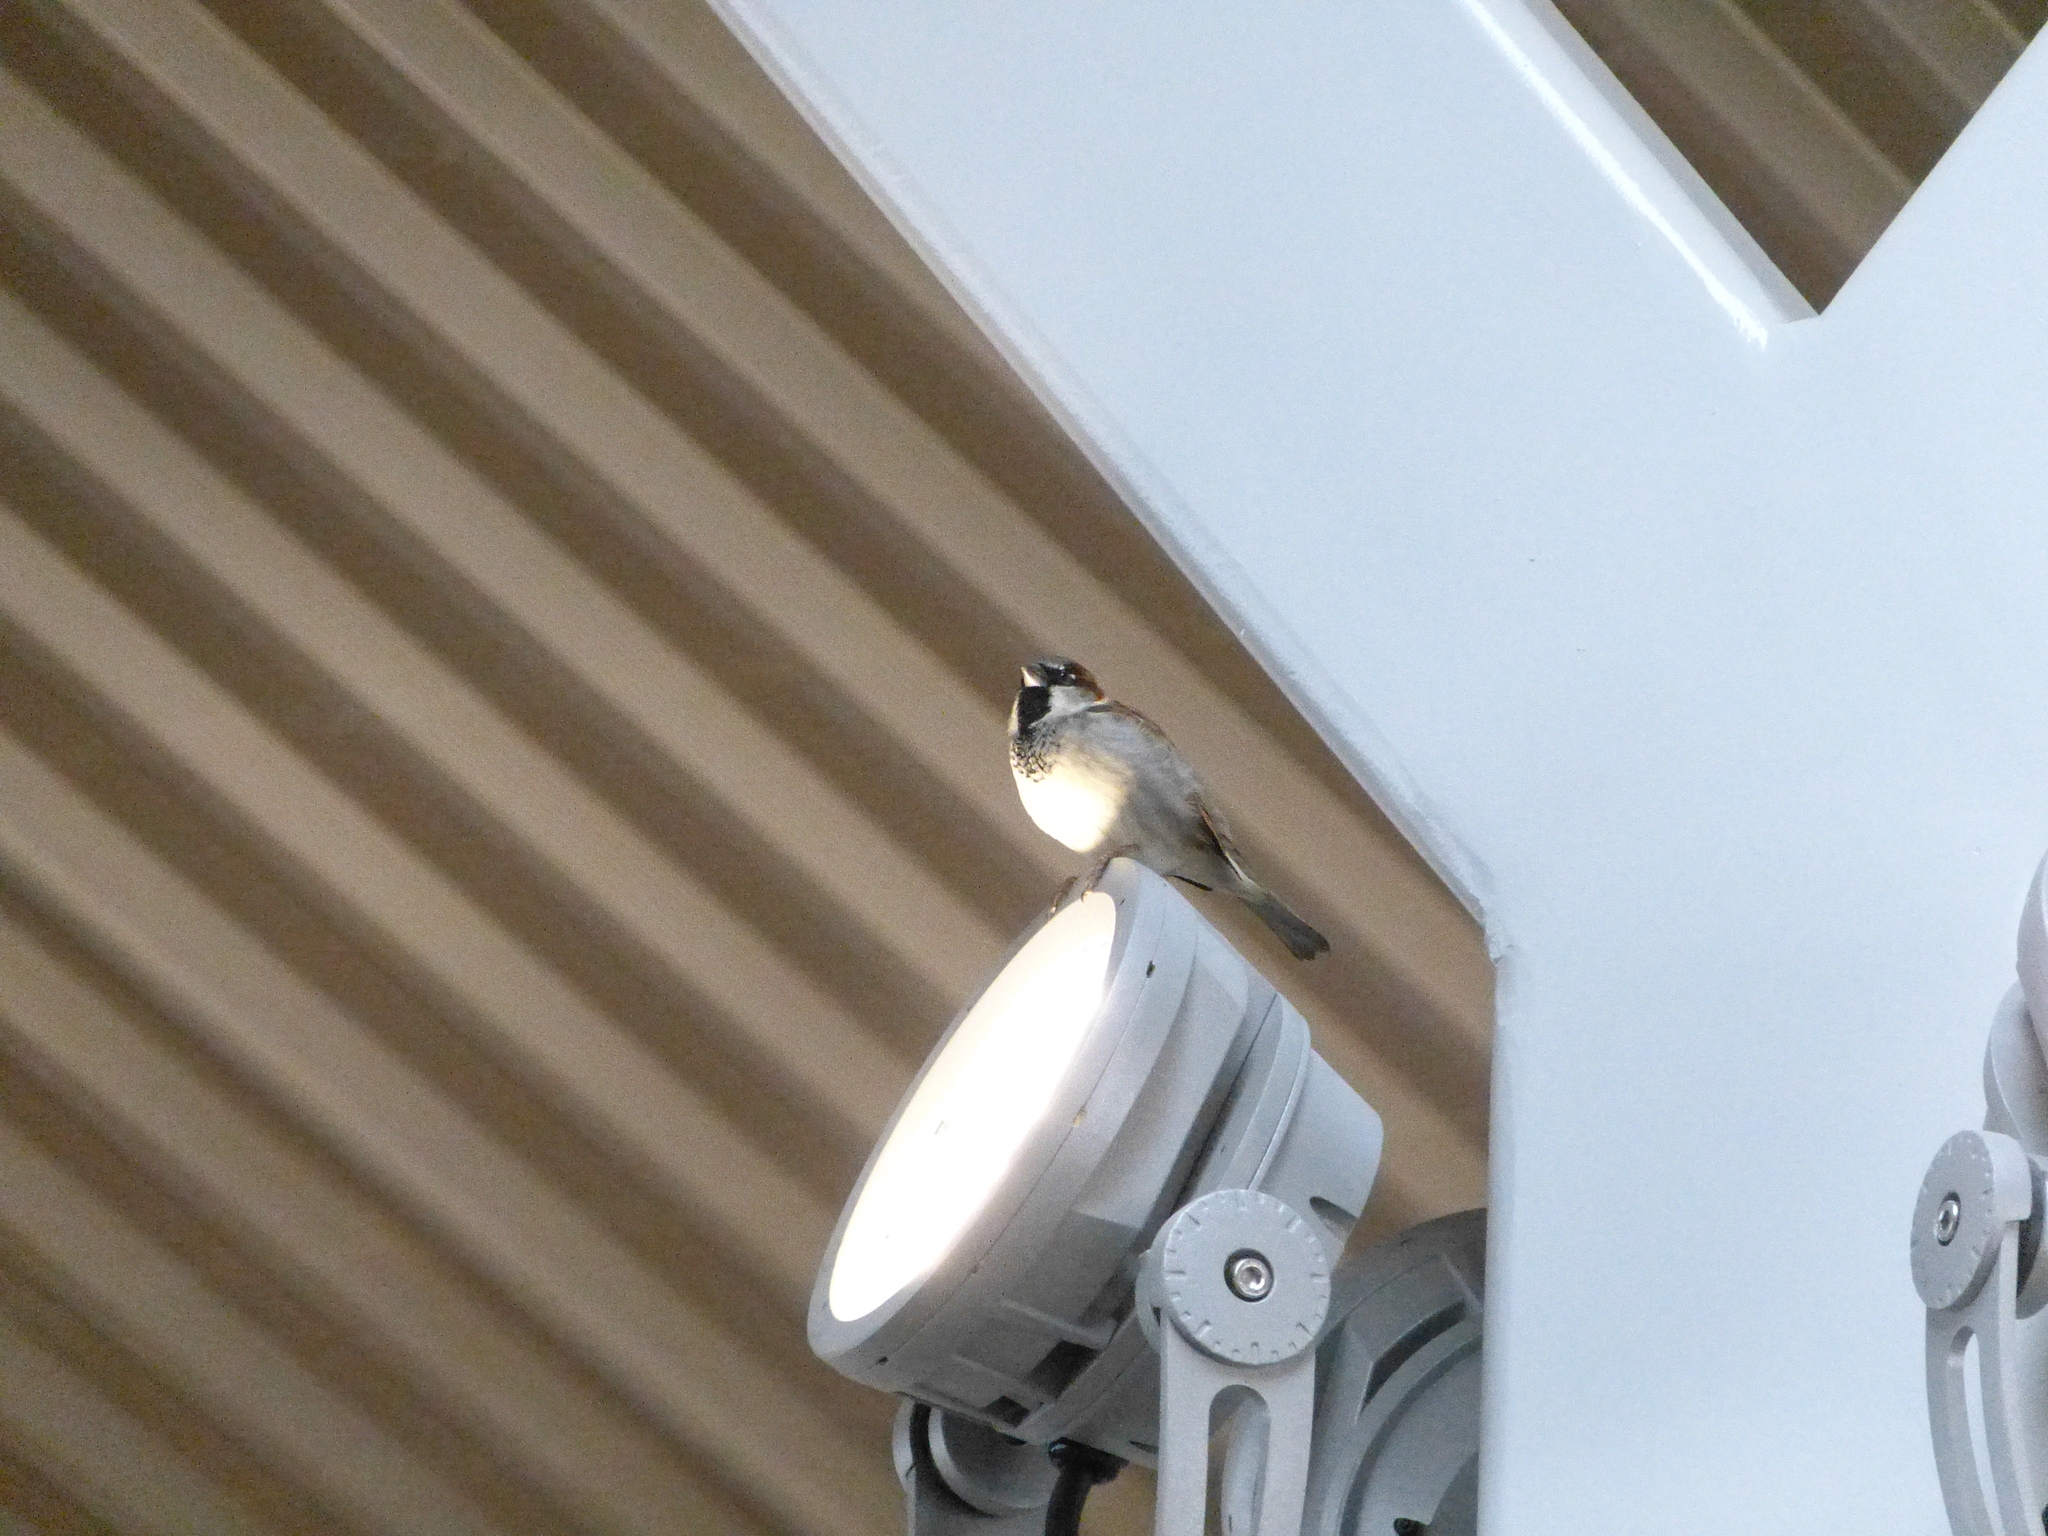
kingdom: Animalia
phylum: Chordata
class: Aves
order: Passeriformes
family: Passeridae
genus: Passer
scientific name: Passer domesticus
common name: House sparrow
